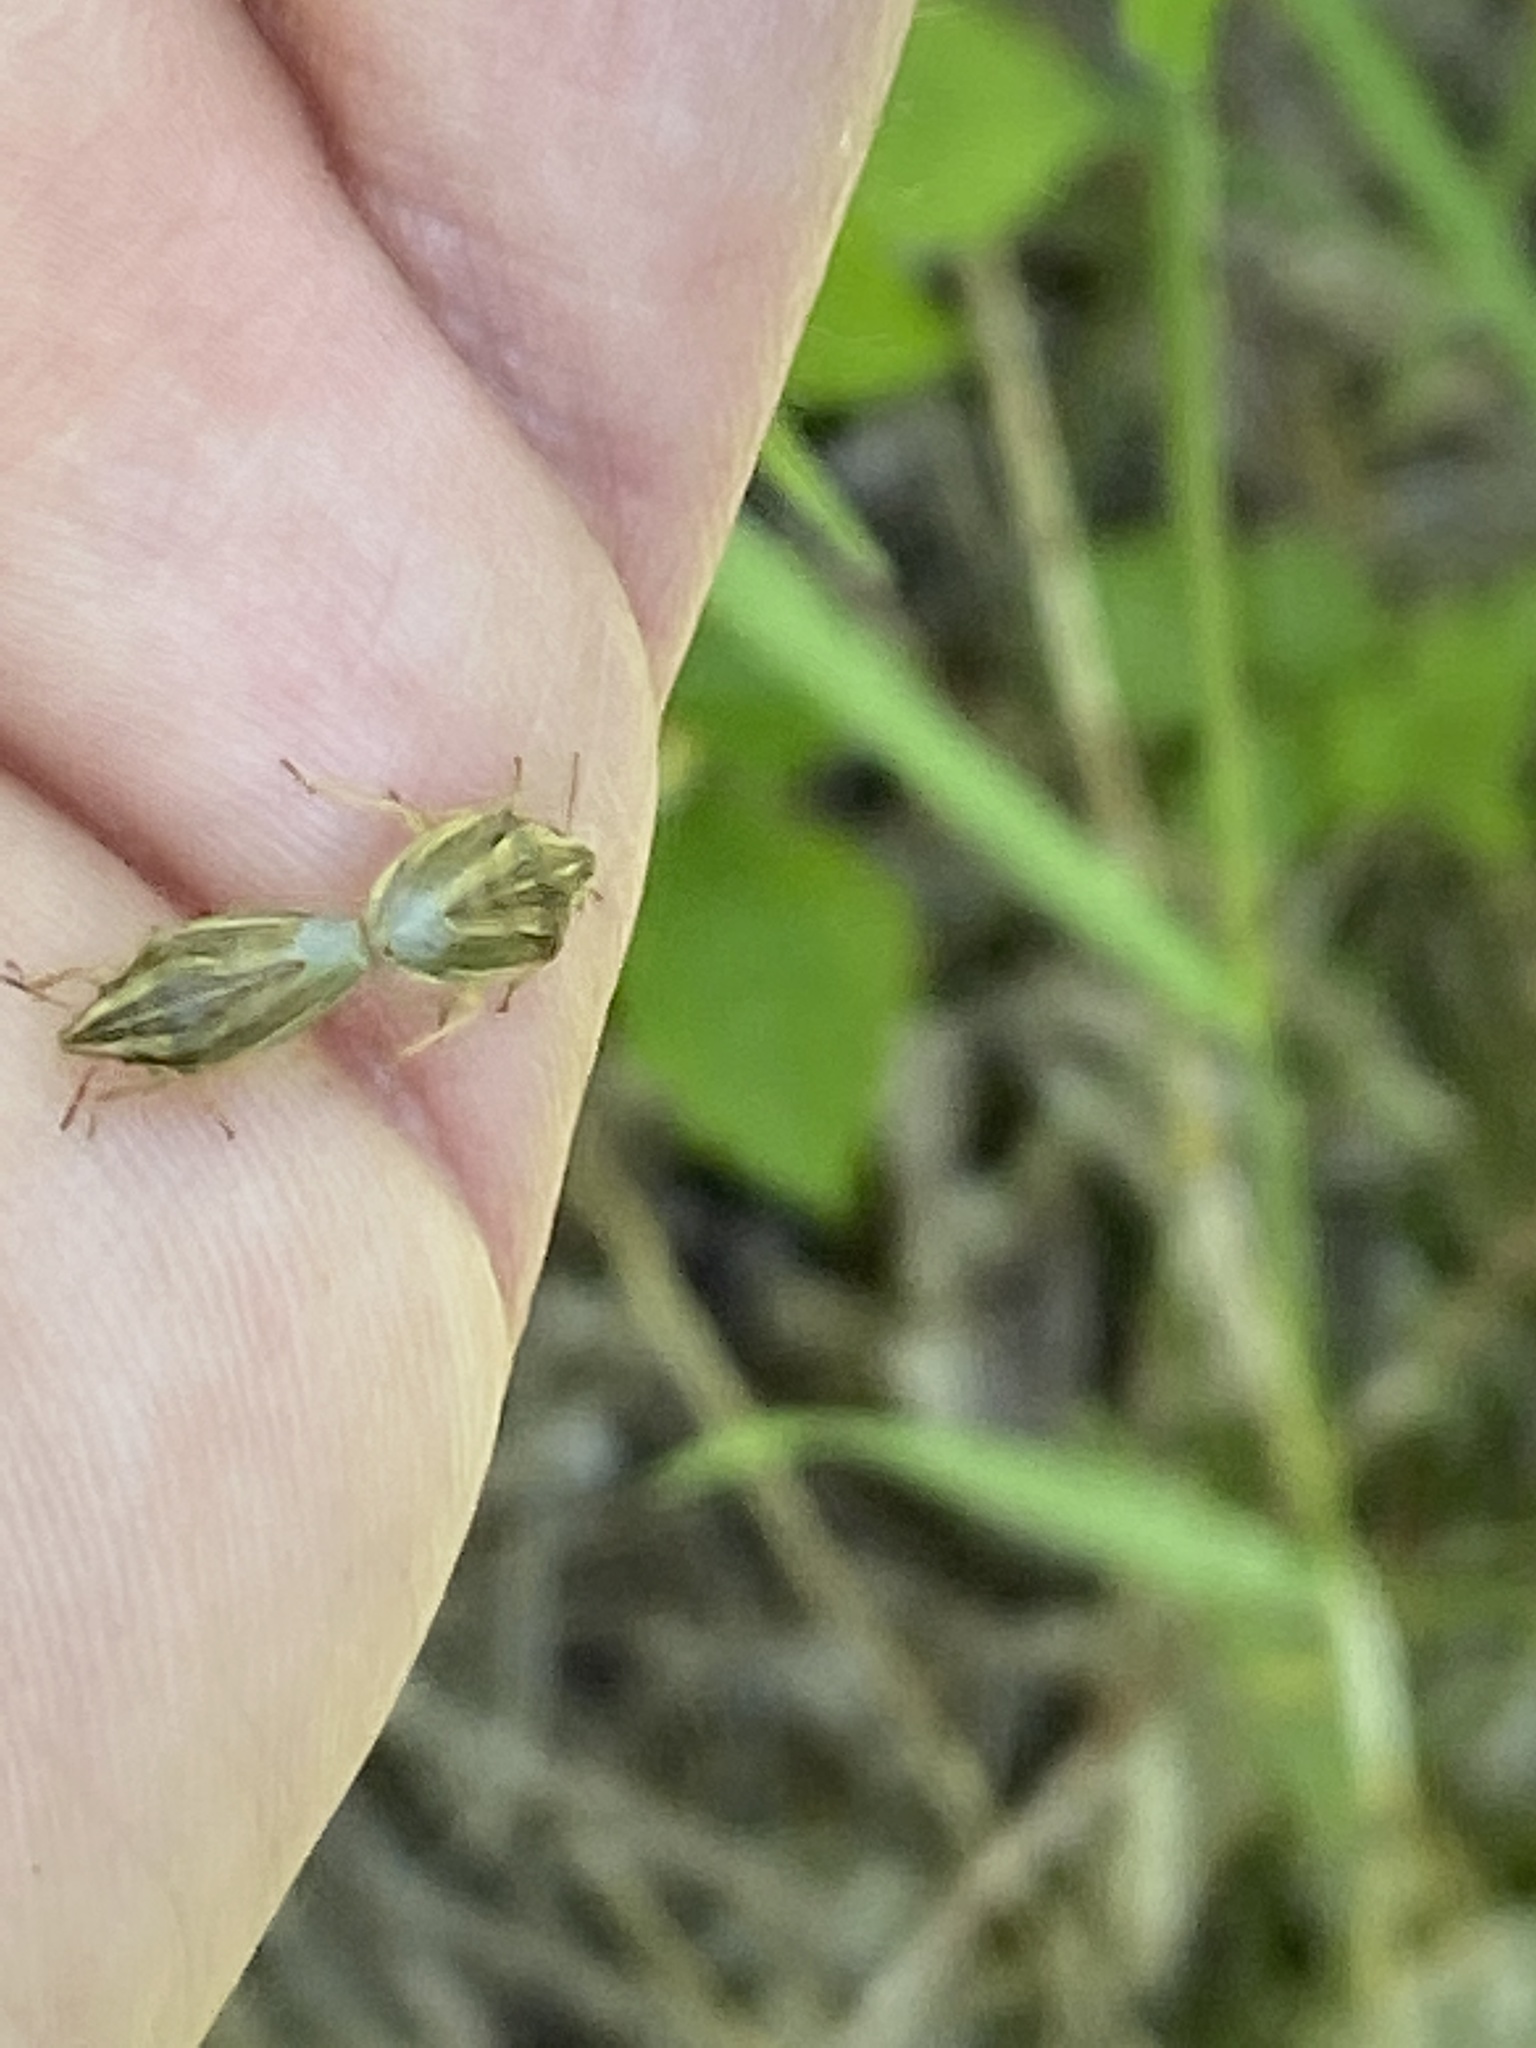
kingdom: Animalia
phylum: Arthropoda
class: Insecta
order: Hemiptera
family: Pentatomidae
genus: Aelia
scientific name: Aelia acuminata
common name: Bishop's mitre
